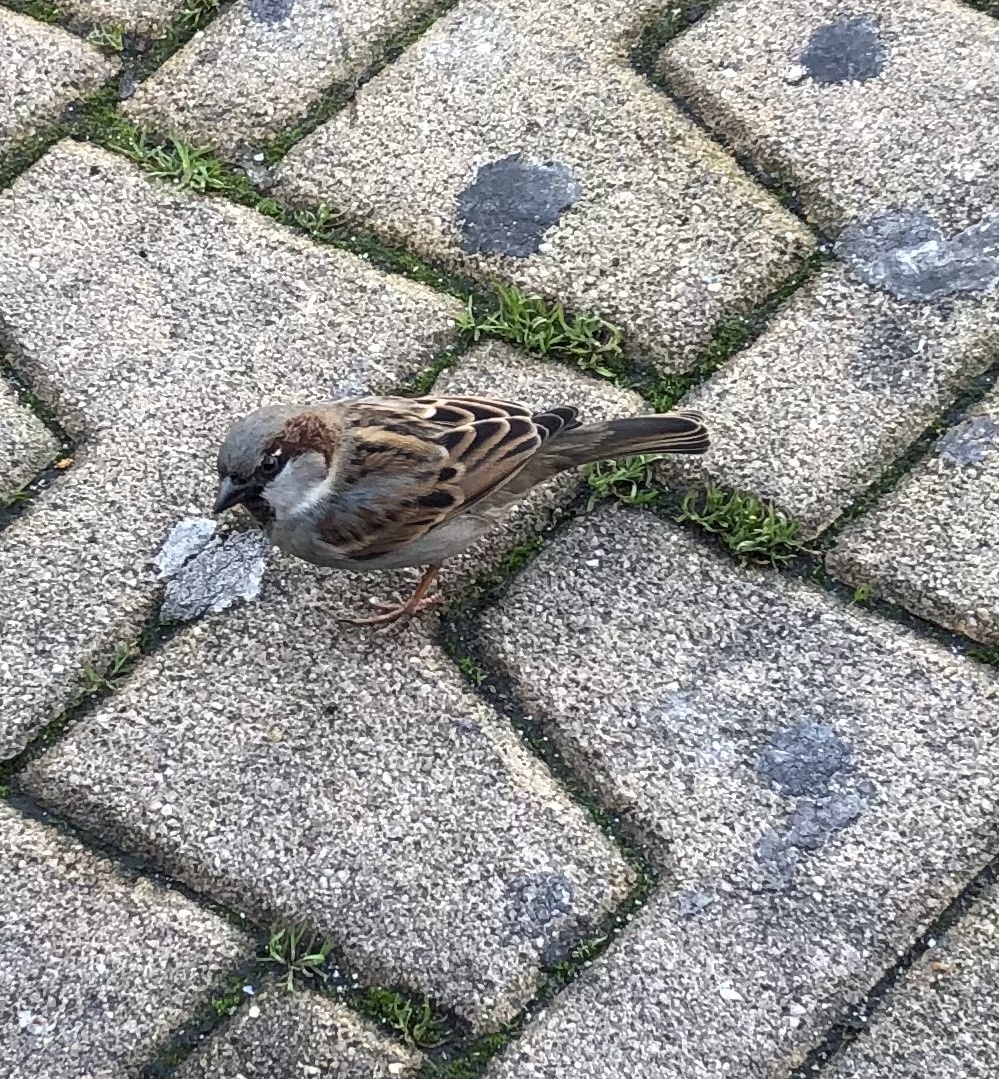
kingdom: Animalia
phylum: Chordata
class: Aves
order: Passeriformes
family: Passeridae
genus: Passer
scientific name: Passer domesticus
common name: House sparrow
